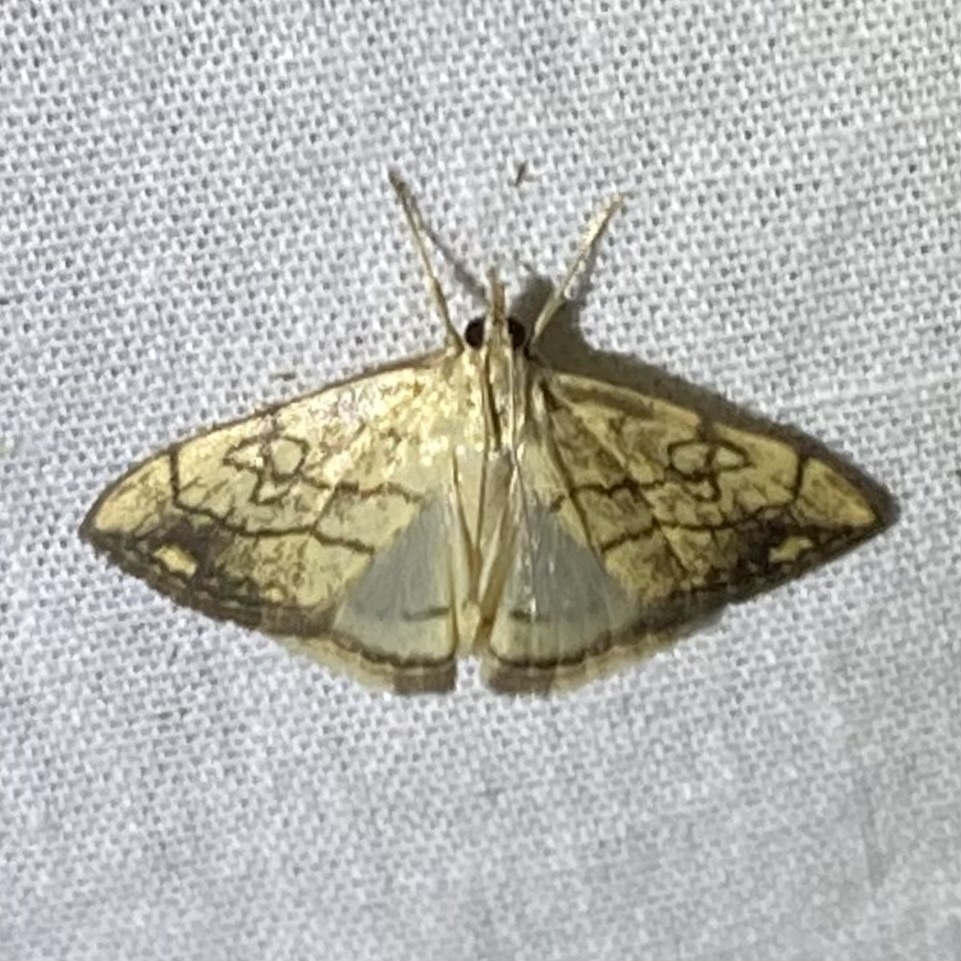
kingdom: Animalia
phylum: Arthropoda
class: Insecta
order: Lepidoptera
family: Crambidae
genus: Evergestis
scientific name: Evergestis pallidata
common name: Chequered pearl
